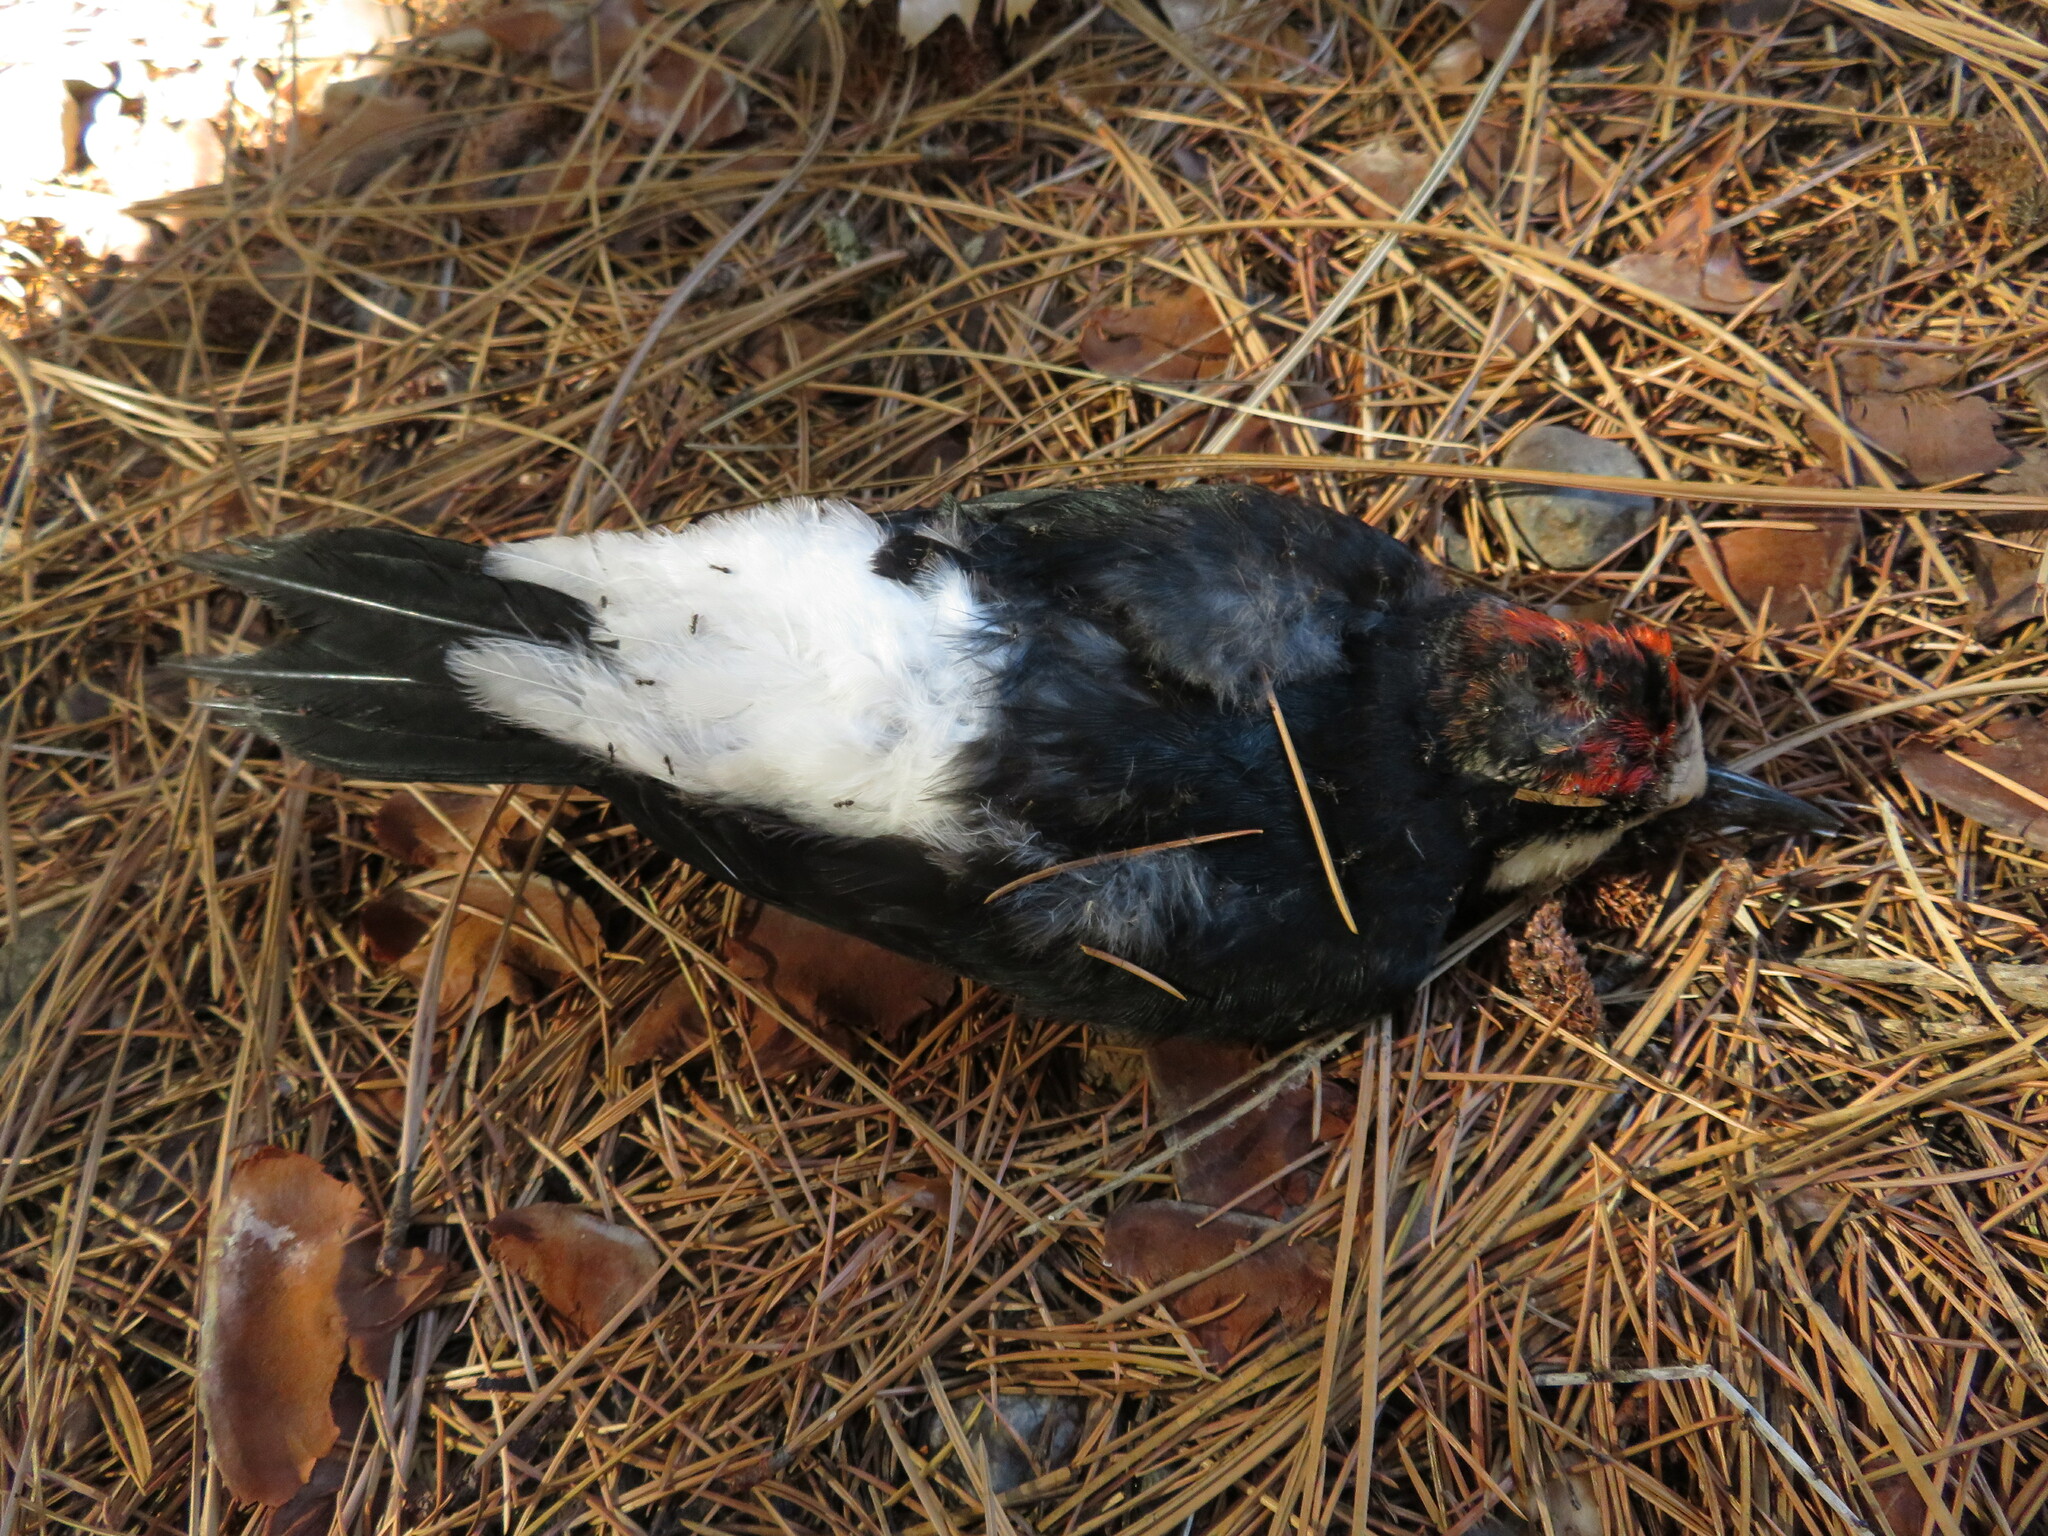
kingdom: Animalia
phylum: Chordata
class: Aves
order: Piciformes
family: Picidae
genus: Melanerpes
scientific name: Melanerpes formicivorus
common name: Acorn woodpecker
